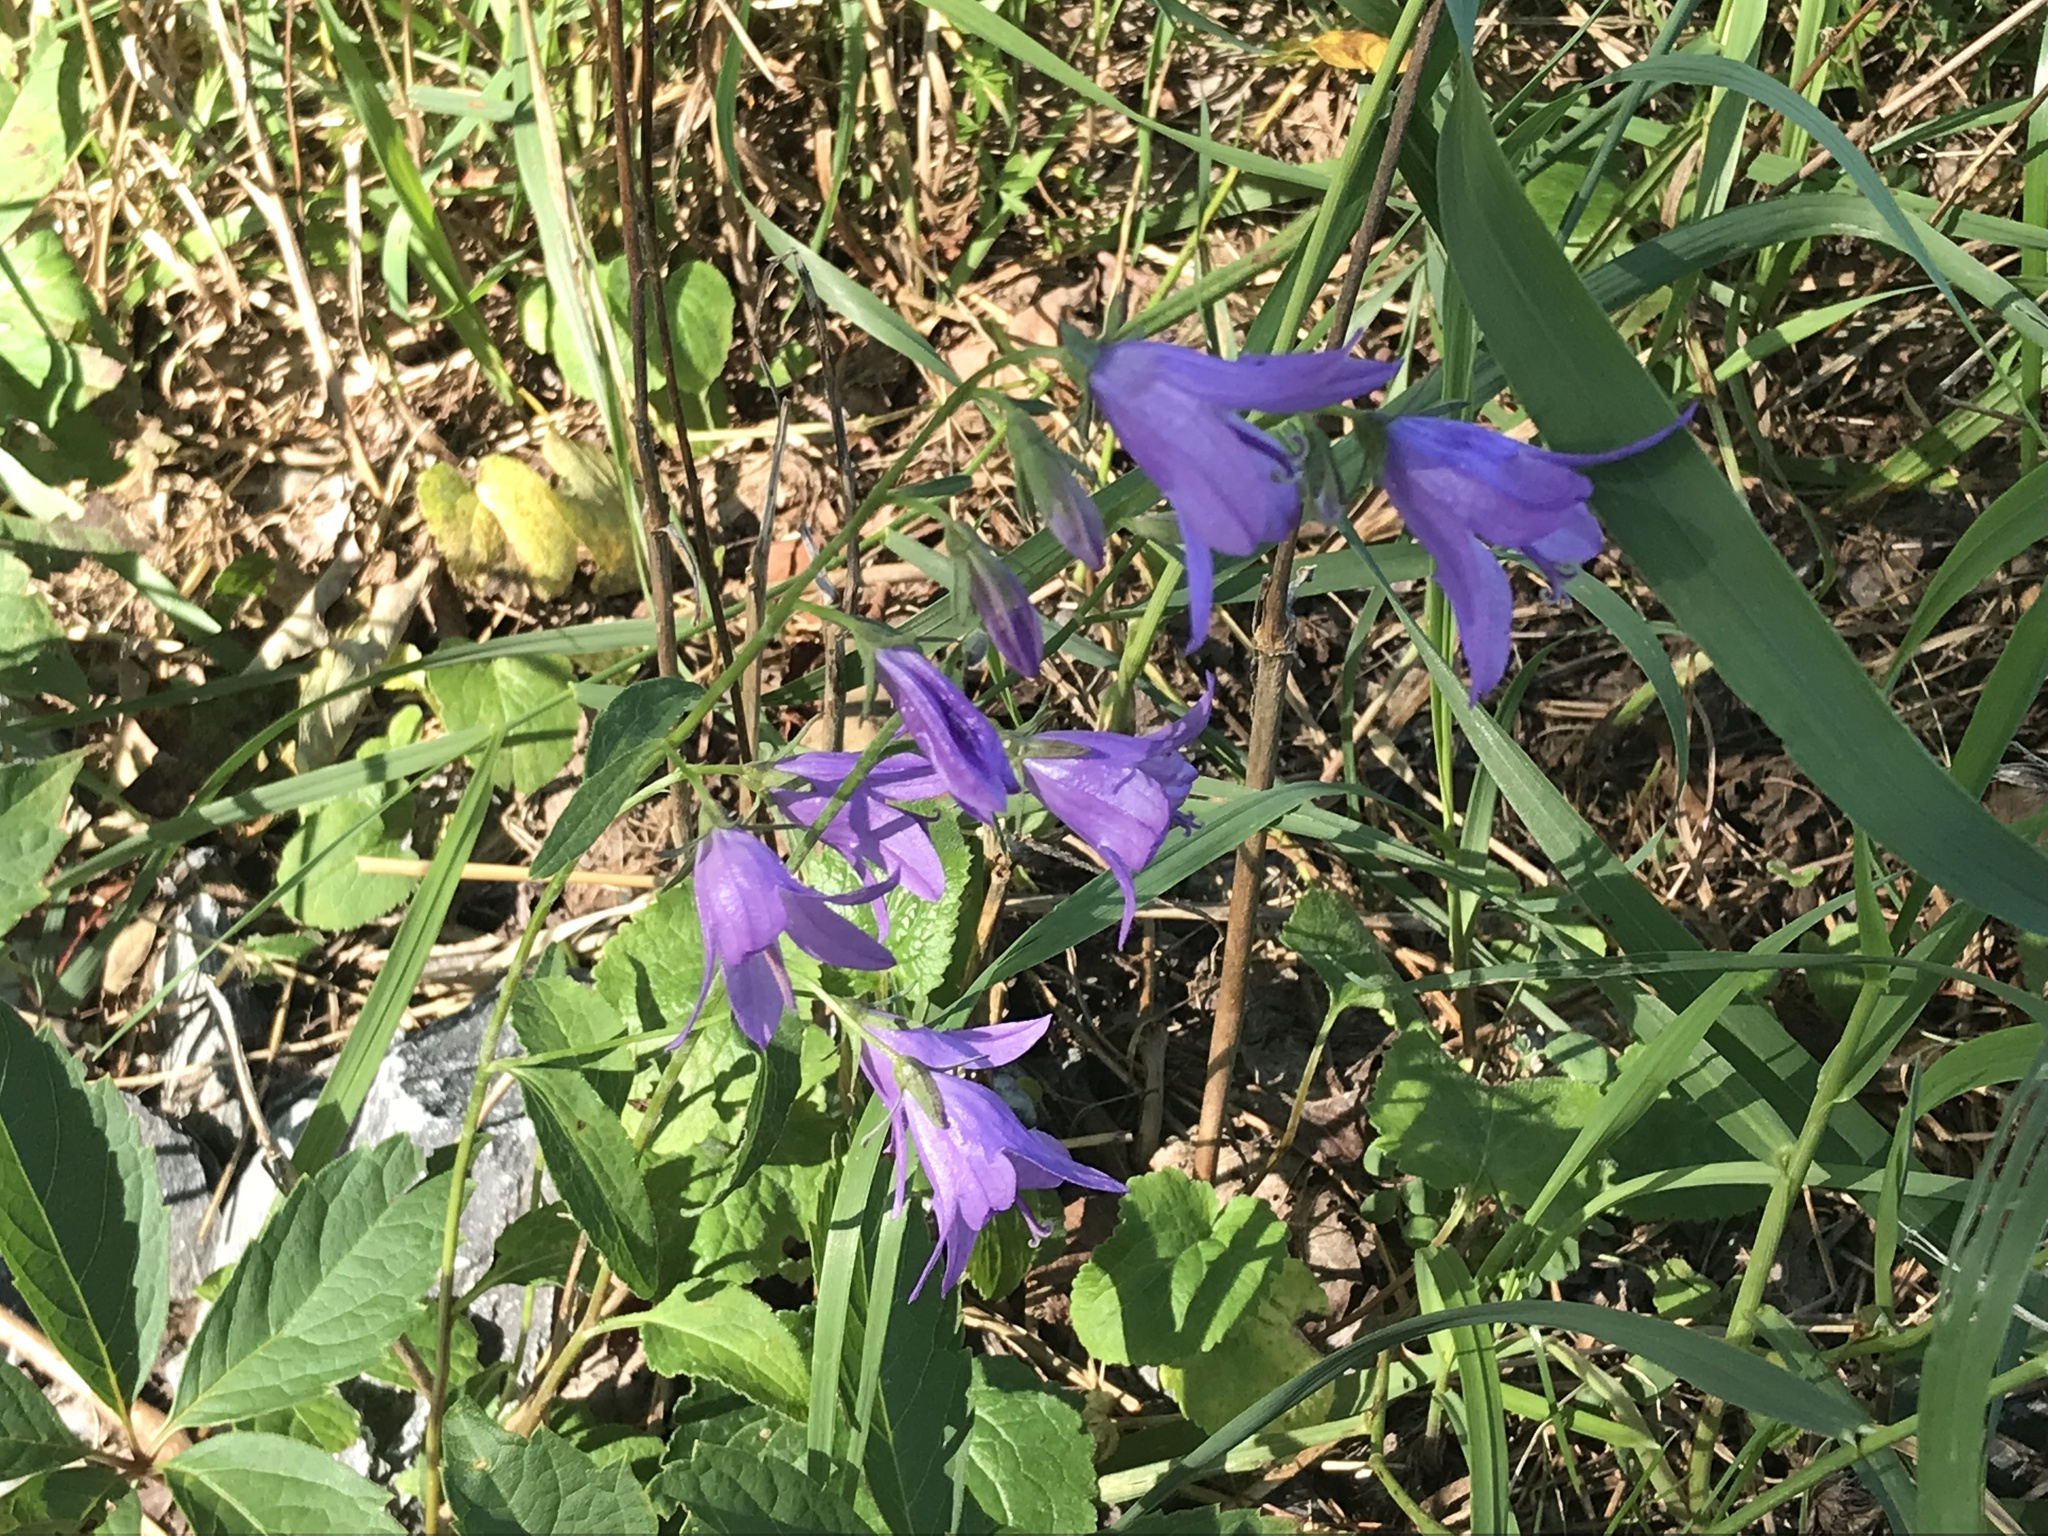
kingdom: Plantae
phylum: Tracheophyta
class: Magnoliopsida
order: Asterales
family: Campanulaceae
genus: Campanula
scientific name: Campanula rapunculoides
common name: Creeping bellflower
